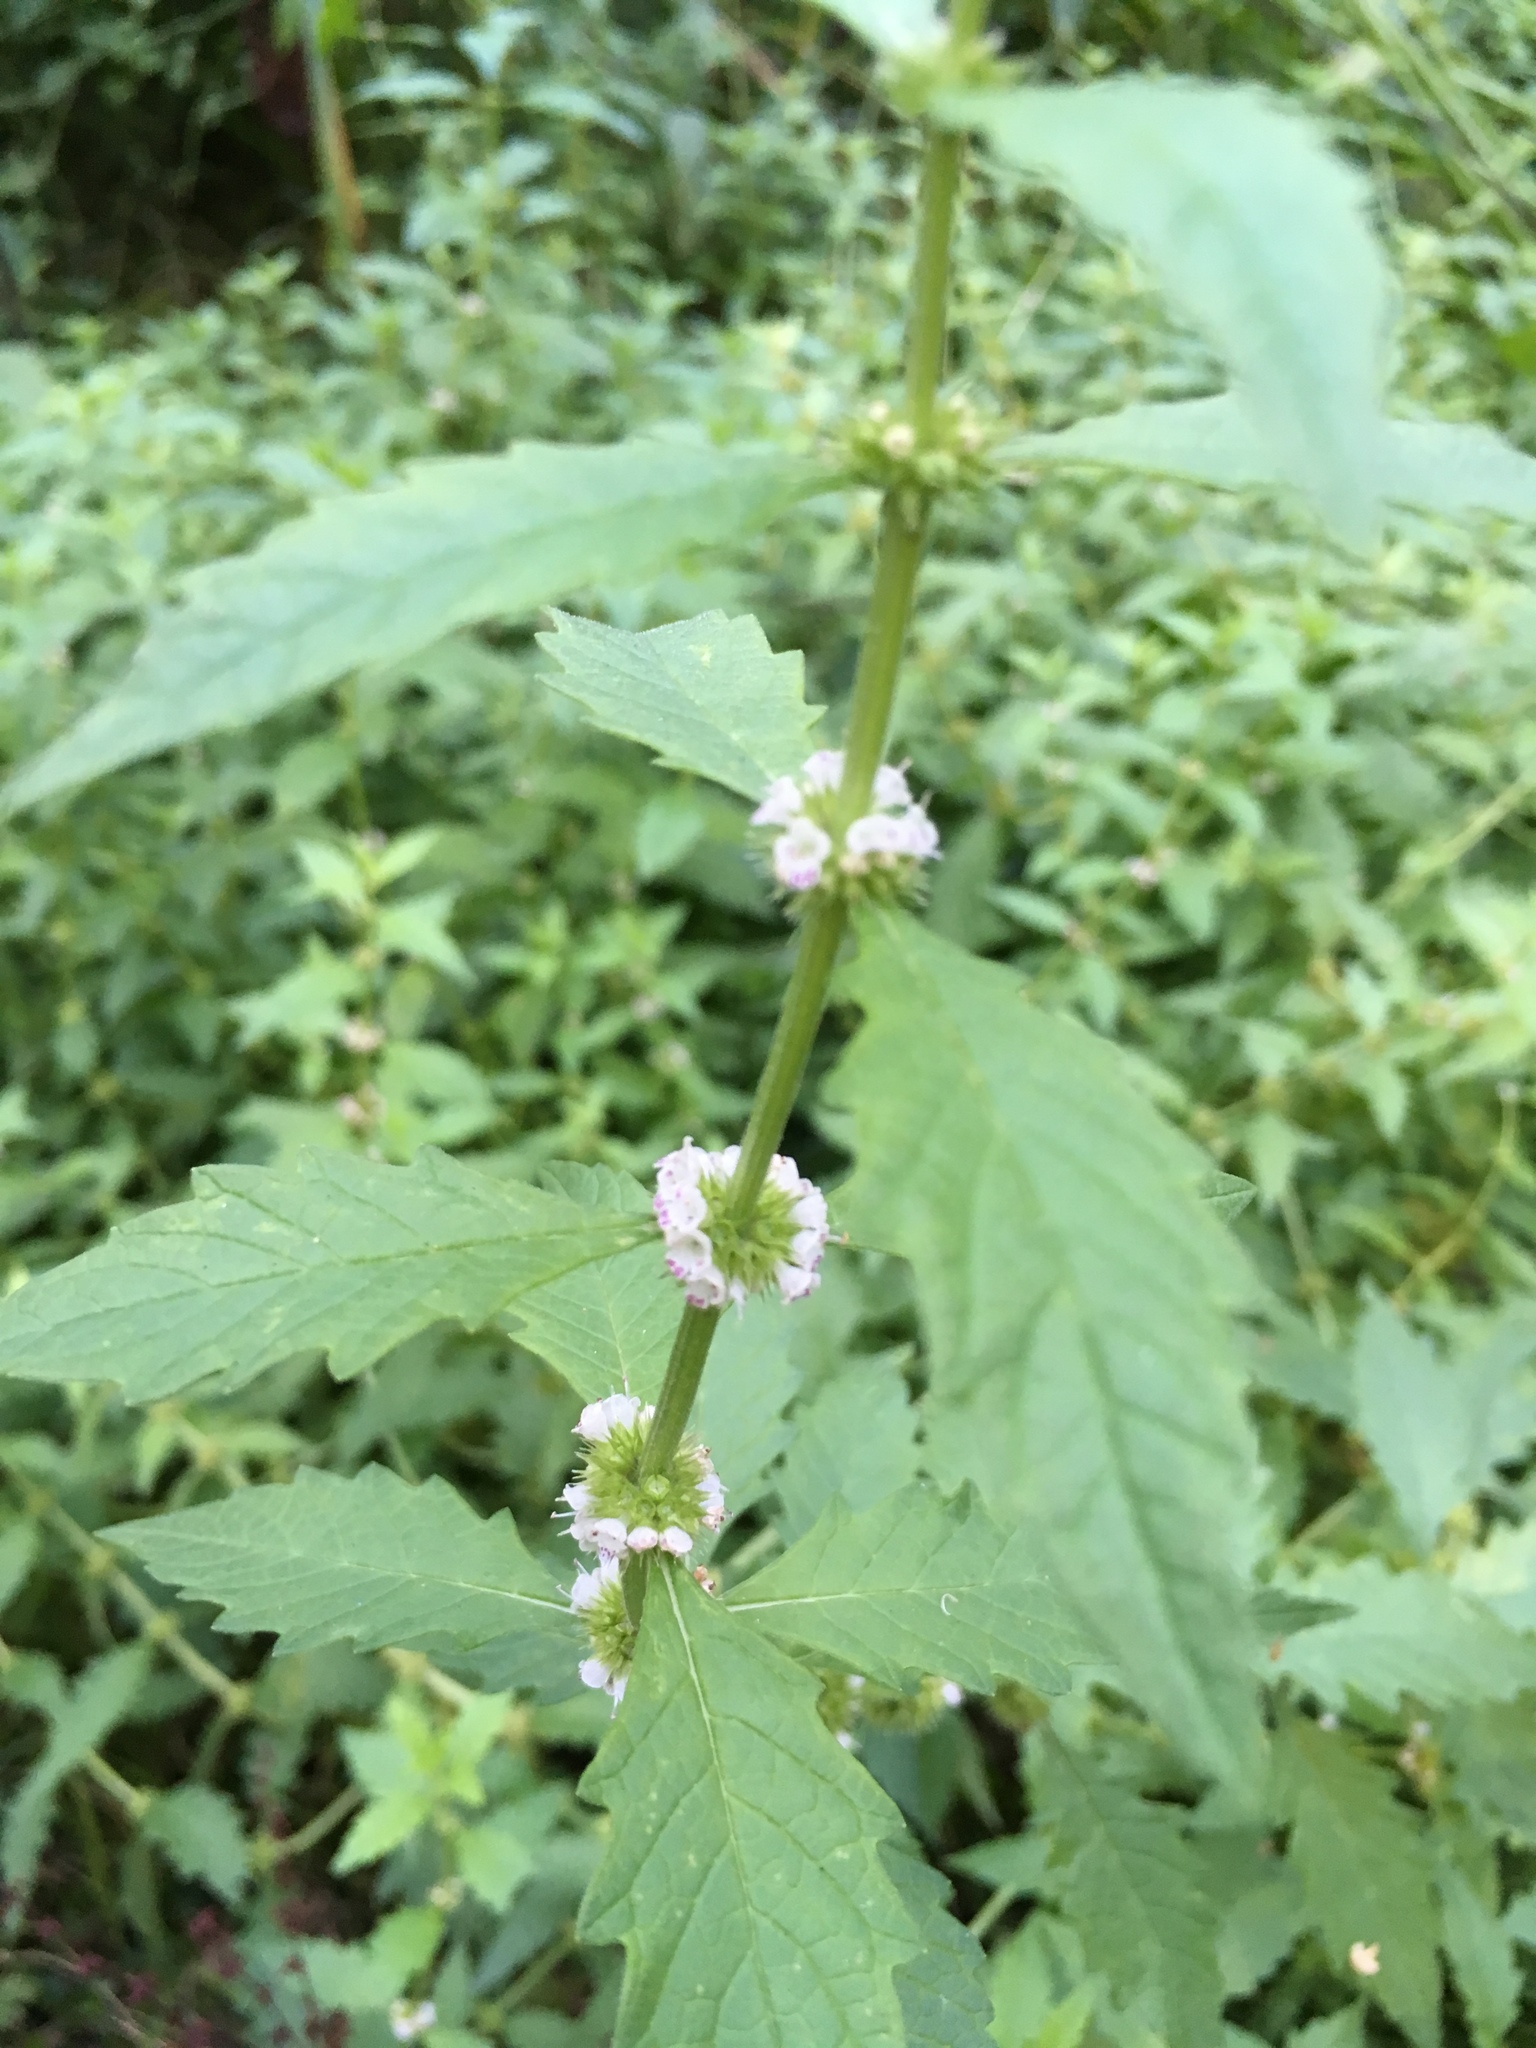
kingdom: Plantae
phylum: Tracheophyta
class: Magnoliopsida
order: Lamiales
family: Lamiaceae
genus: Lycopus
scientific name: Lycopus europaeus
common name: European bugleweed
